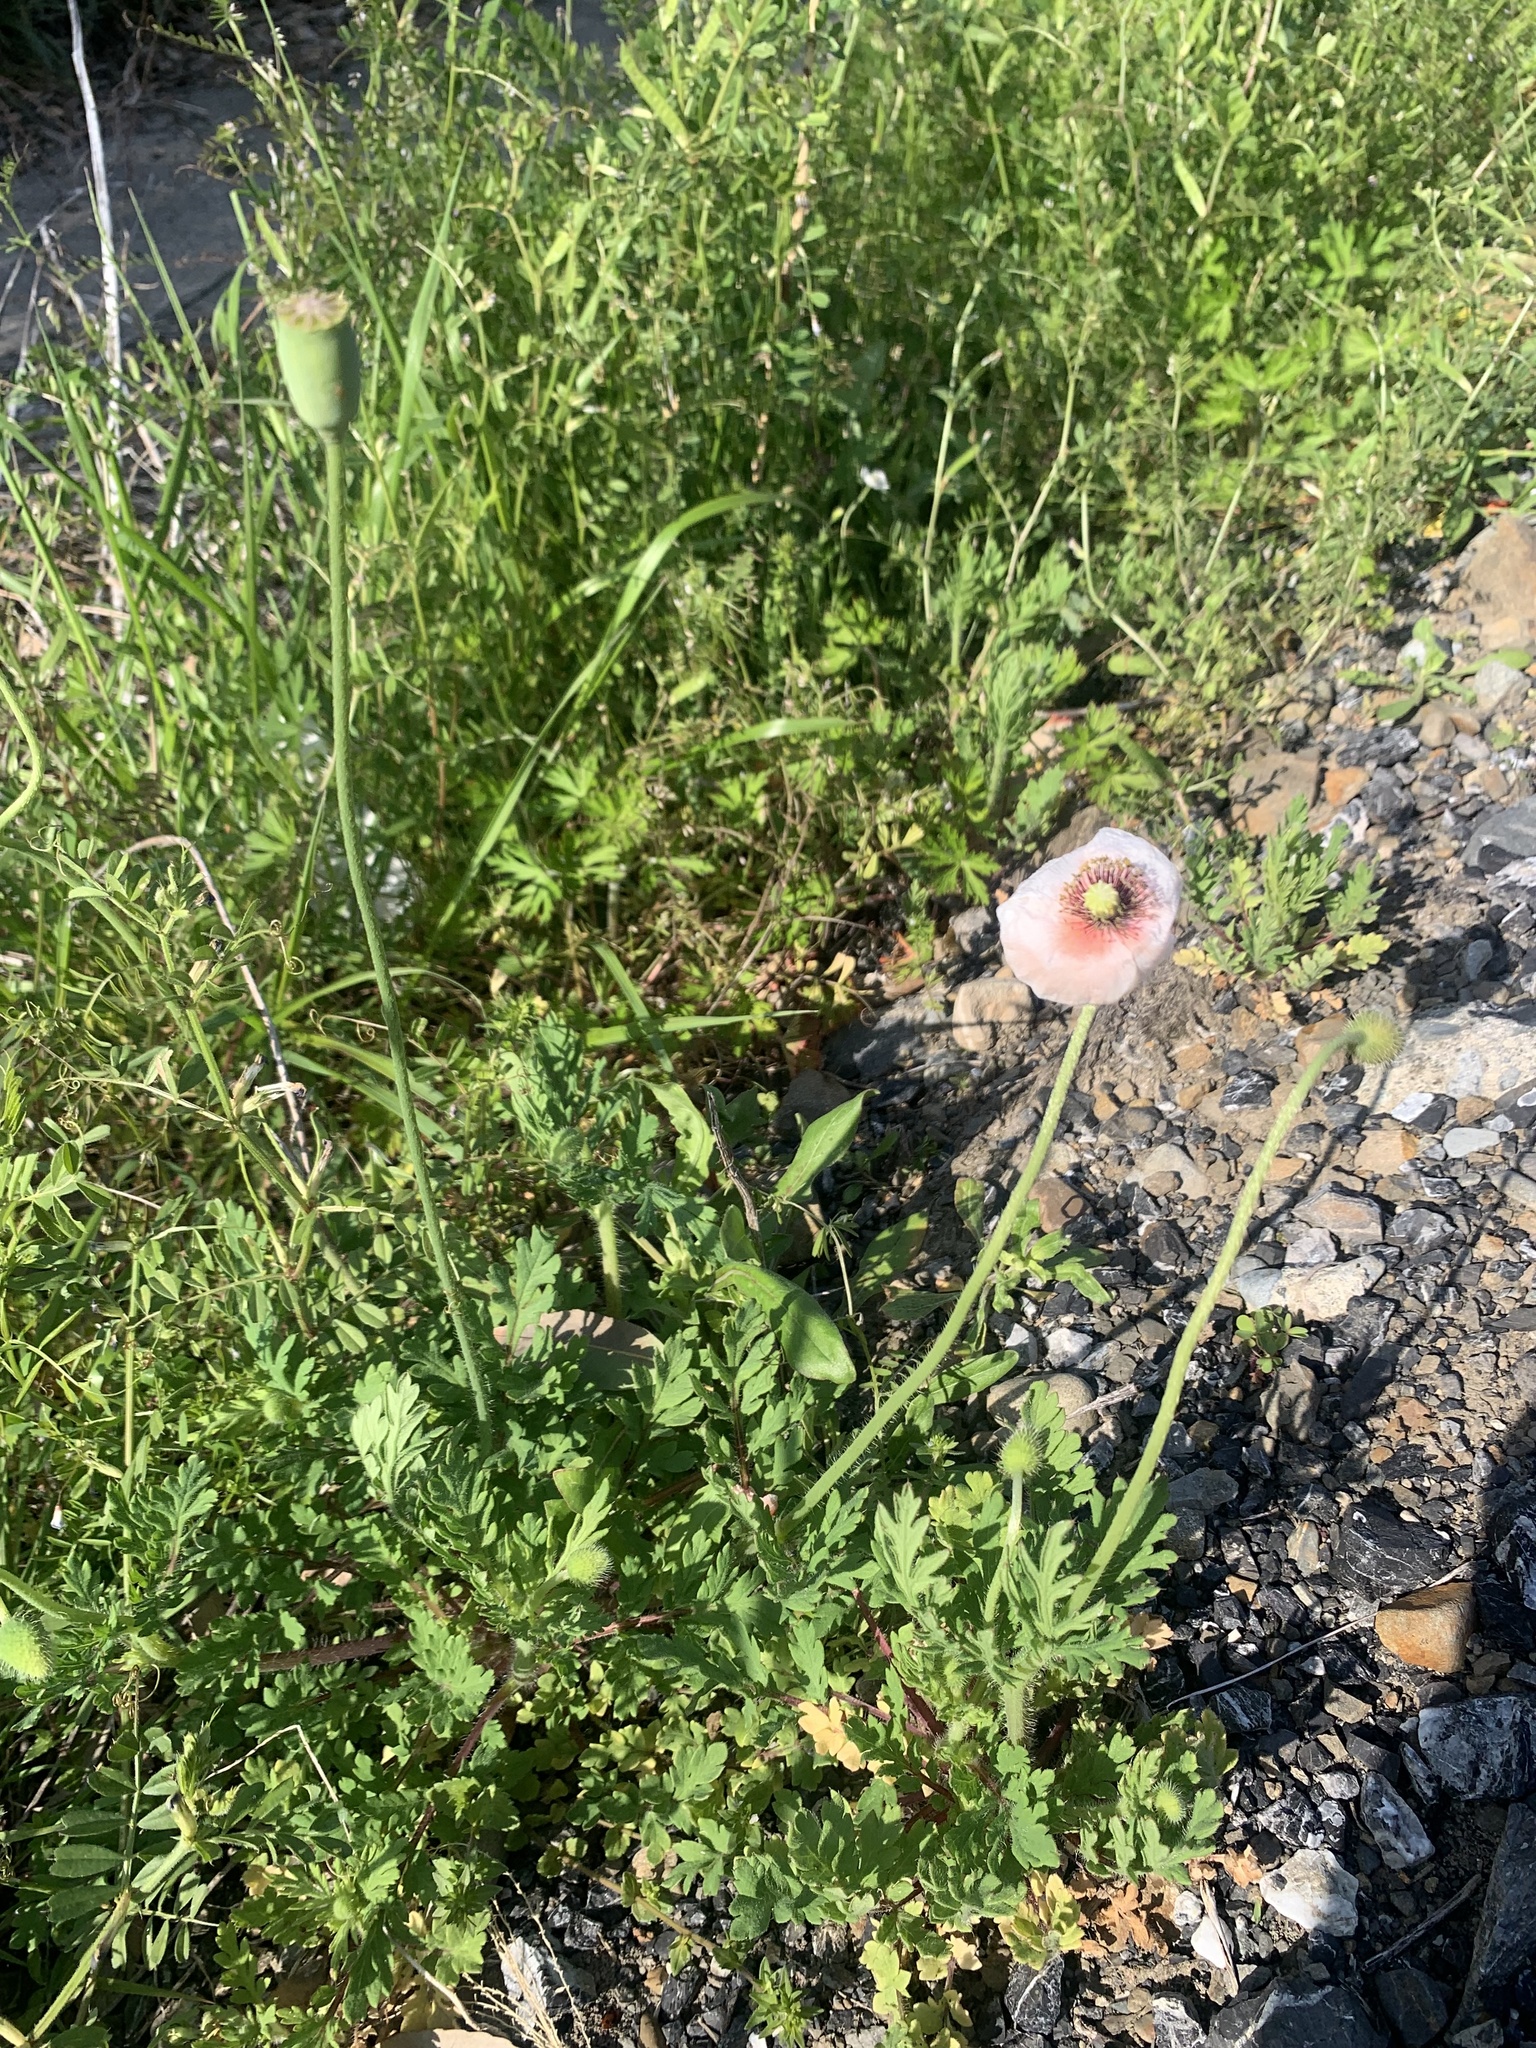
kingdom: Plantae
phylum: Tracheophyta
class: Magnoliopsida
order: Ranunculales
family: Papaveraceae
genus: Papaver
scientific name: Papaver dubium
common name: Long-headed poppy
